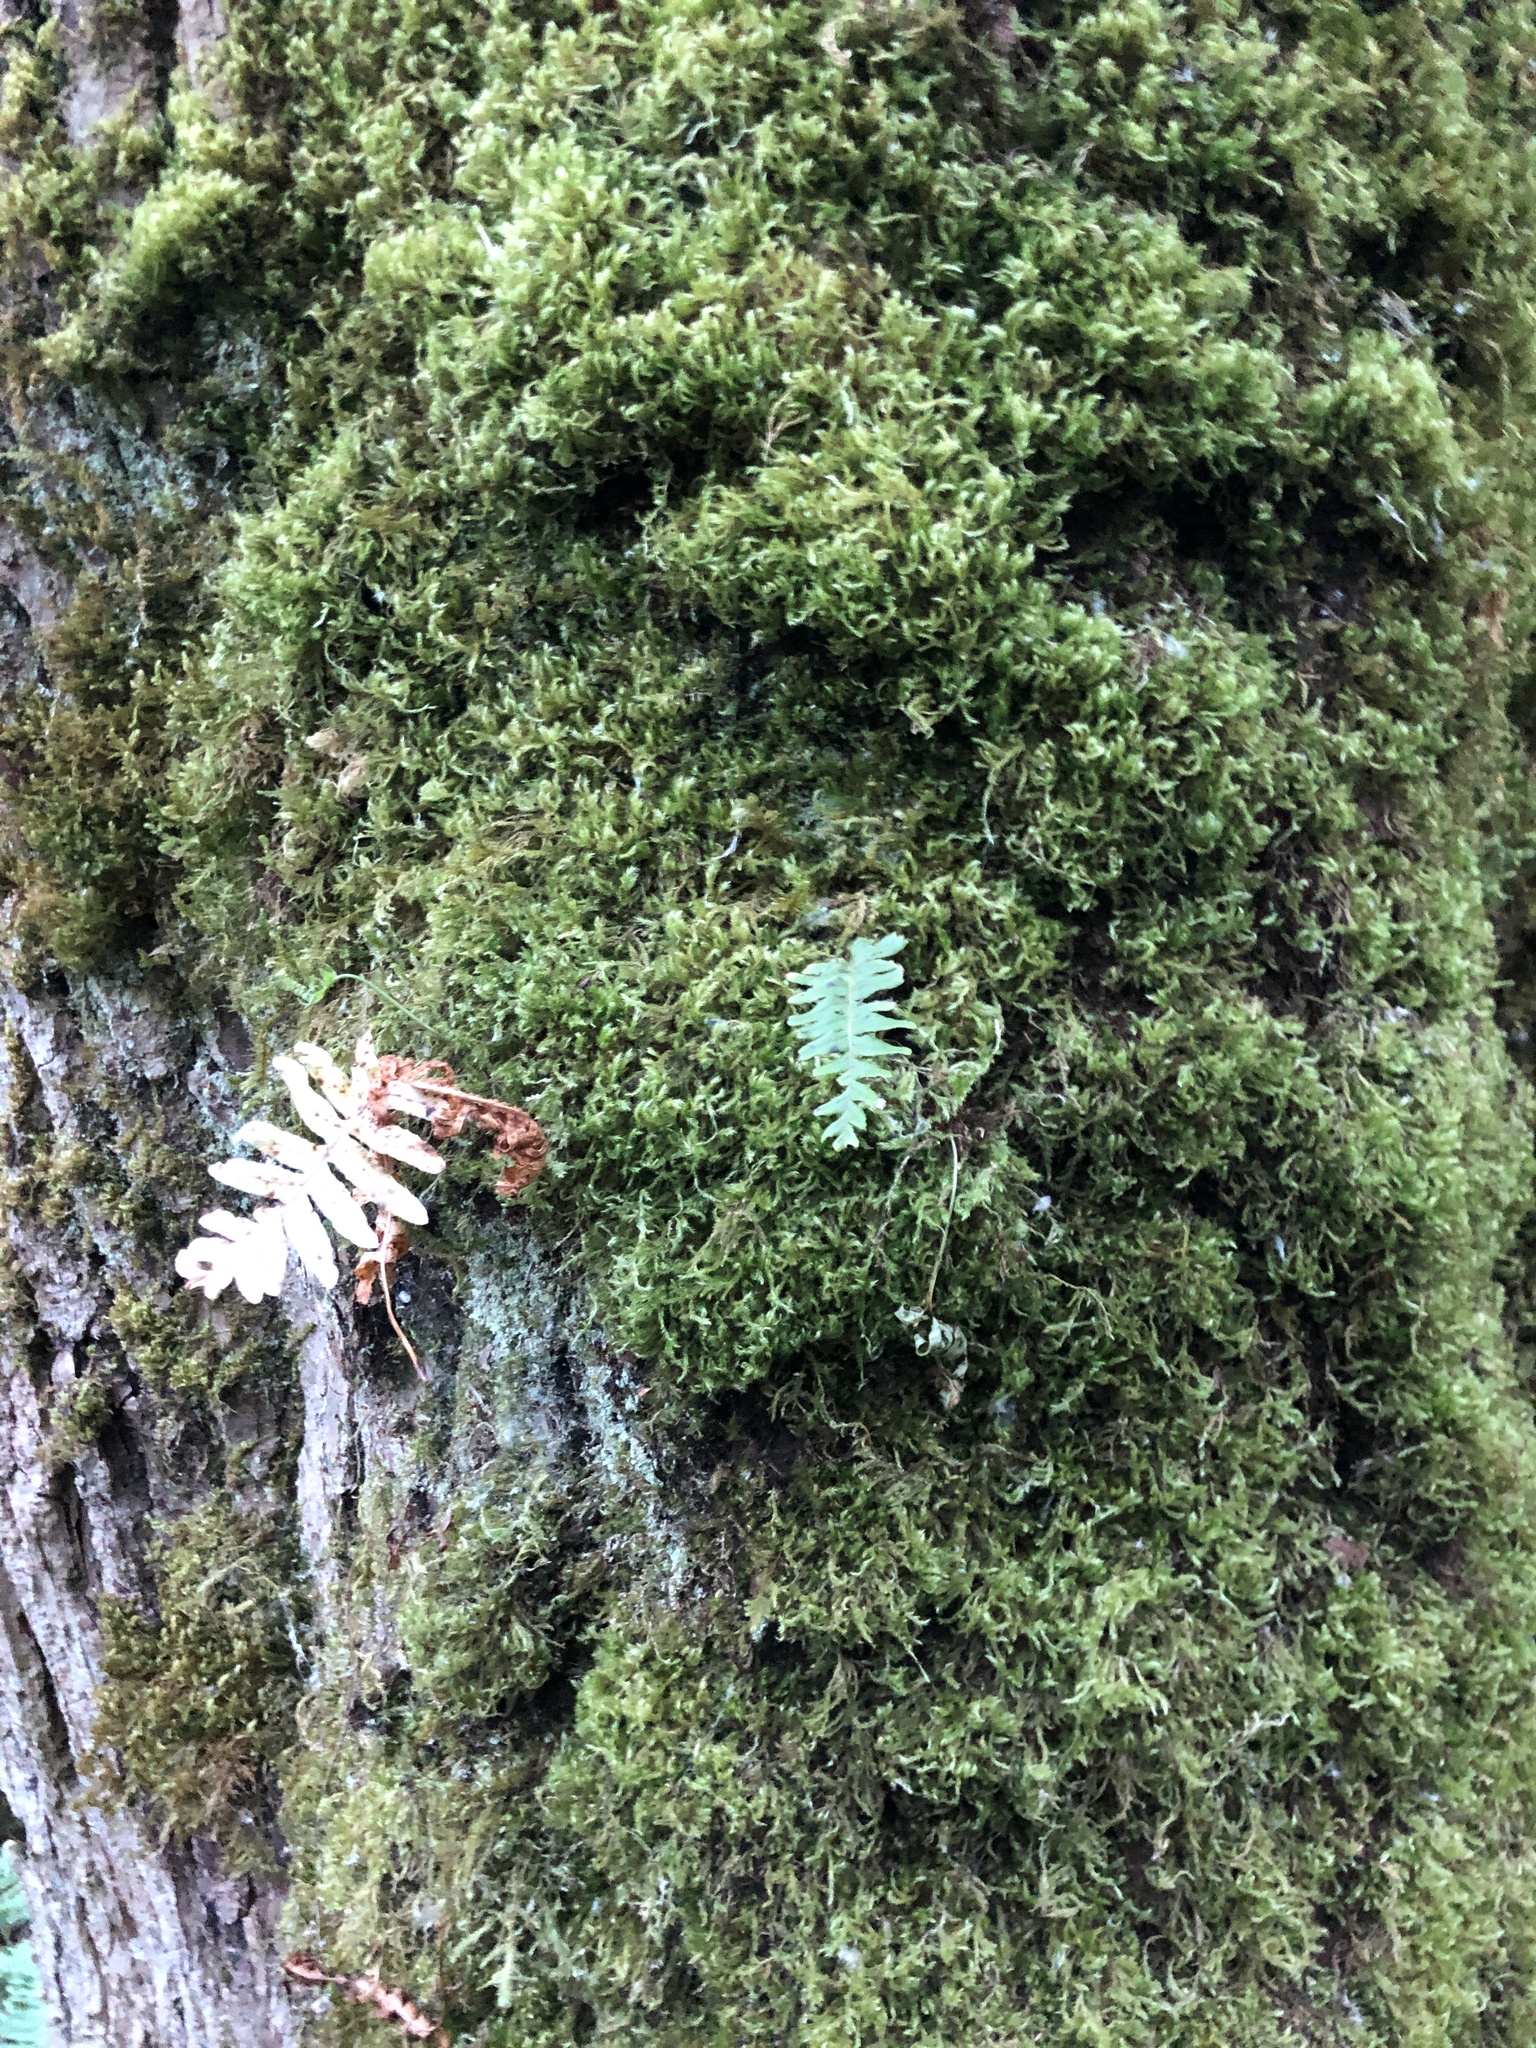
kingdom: Plantae
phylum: Tracheophyta
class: Polypodiopsida
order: Polypodiales
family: Polypodiaceae
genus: Polypodium
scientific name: Polypodium glycyrrhiza
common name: Licorice fern
